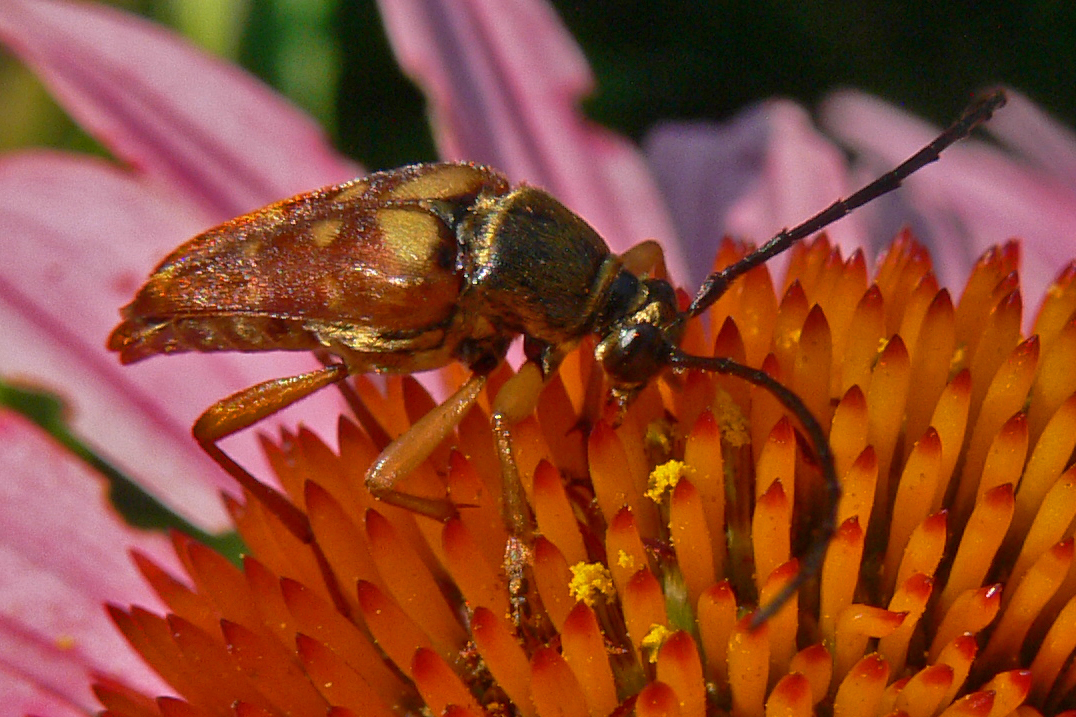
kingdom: Animalia
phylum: Arthropoda
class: Insecta
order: Coleoptera
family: Cerambycidae
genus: Typocerus
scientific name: Typocerus velutinus
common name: Banded longhorn beetle
